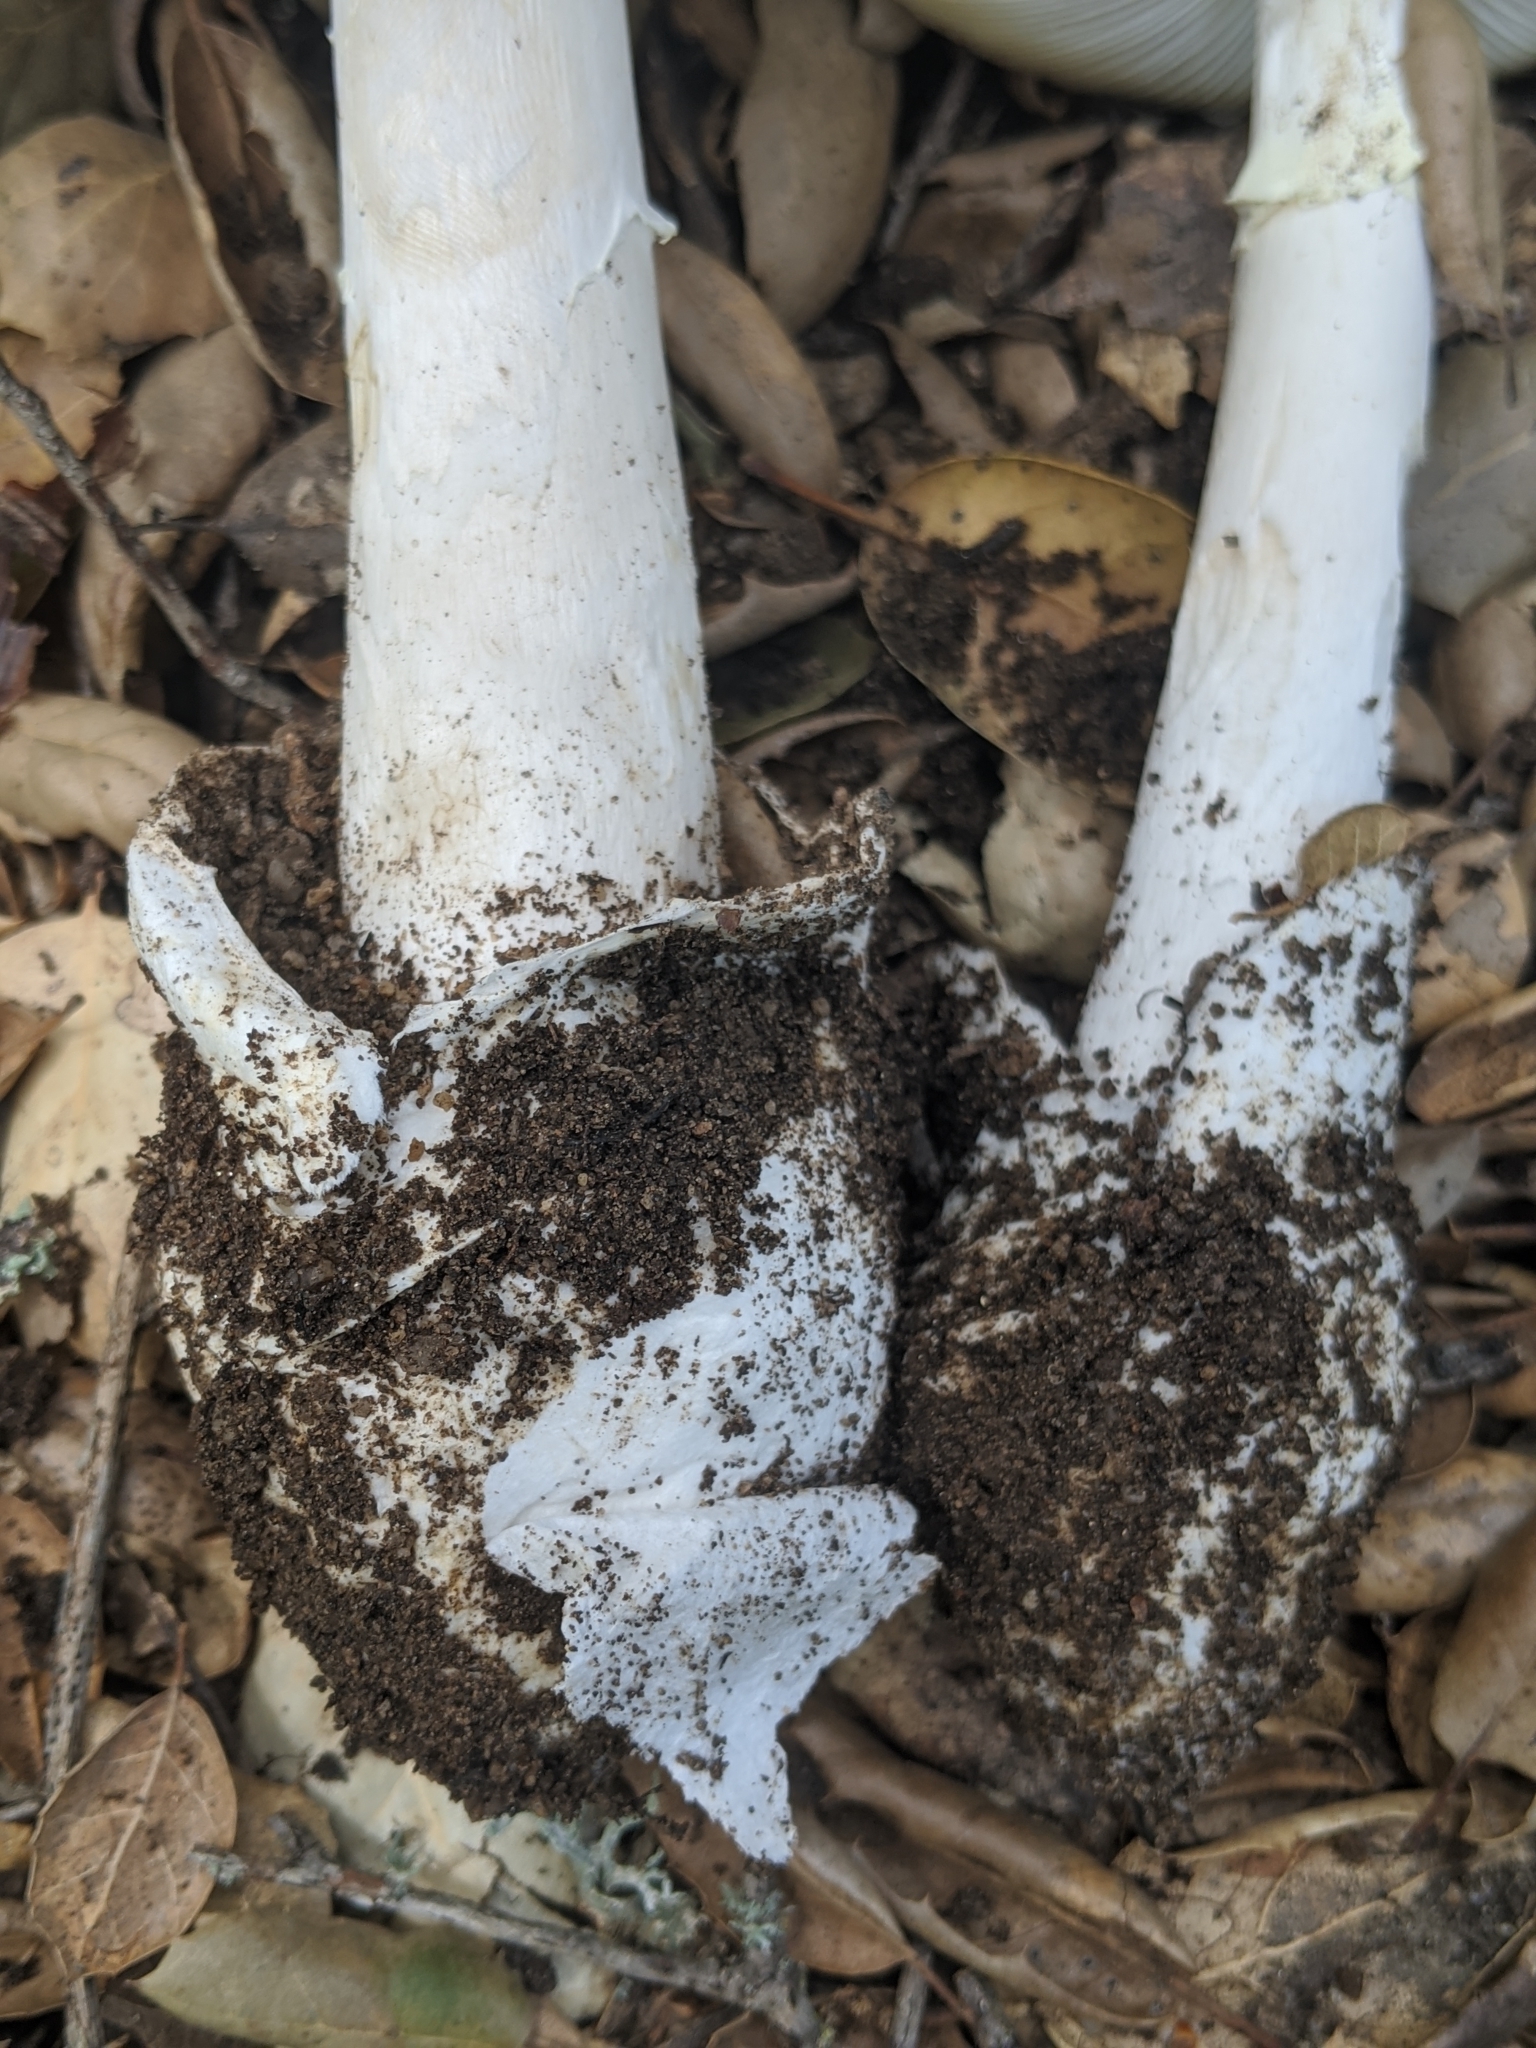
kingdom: Fungi
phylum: Basidiomycota
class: Agaricomycetes
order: Agaricales
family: Amanitaceae
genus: Amanita
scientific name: Amanita ocreata
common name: Western destroying angel
